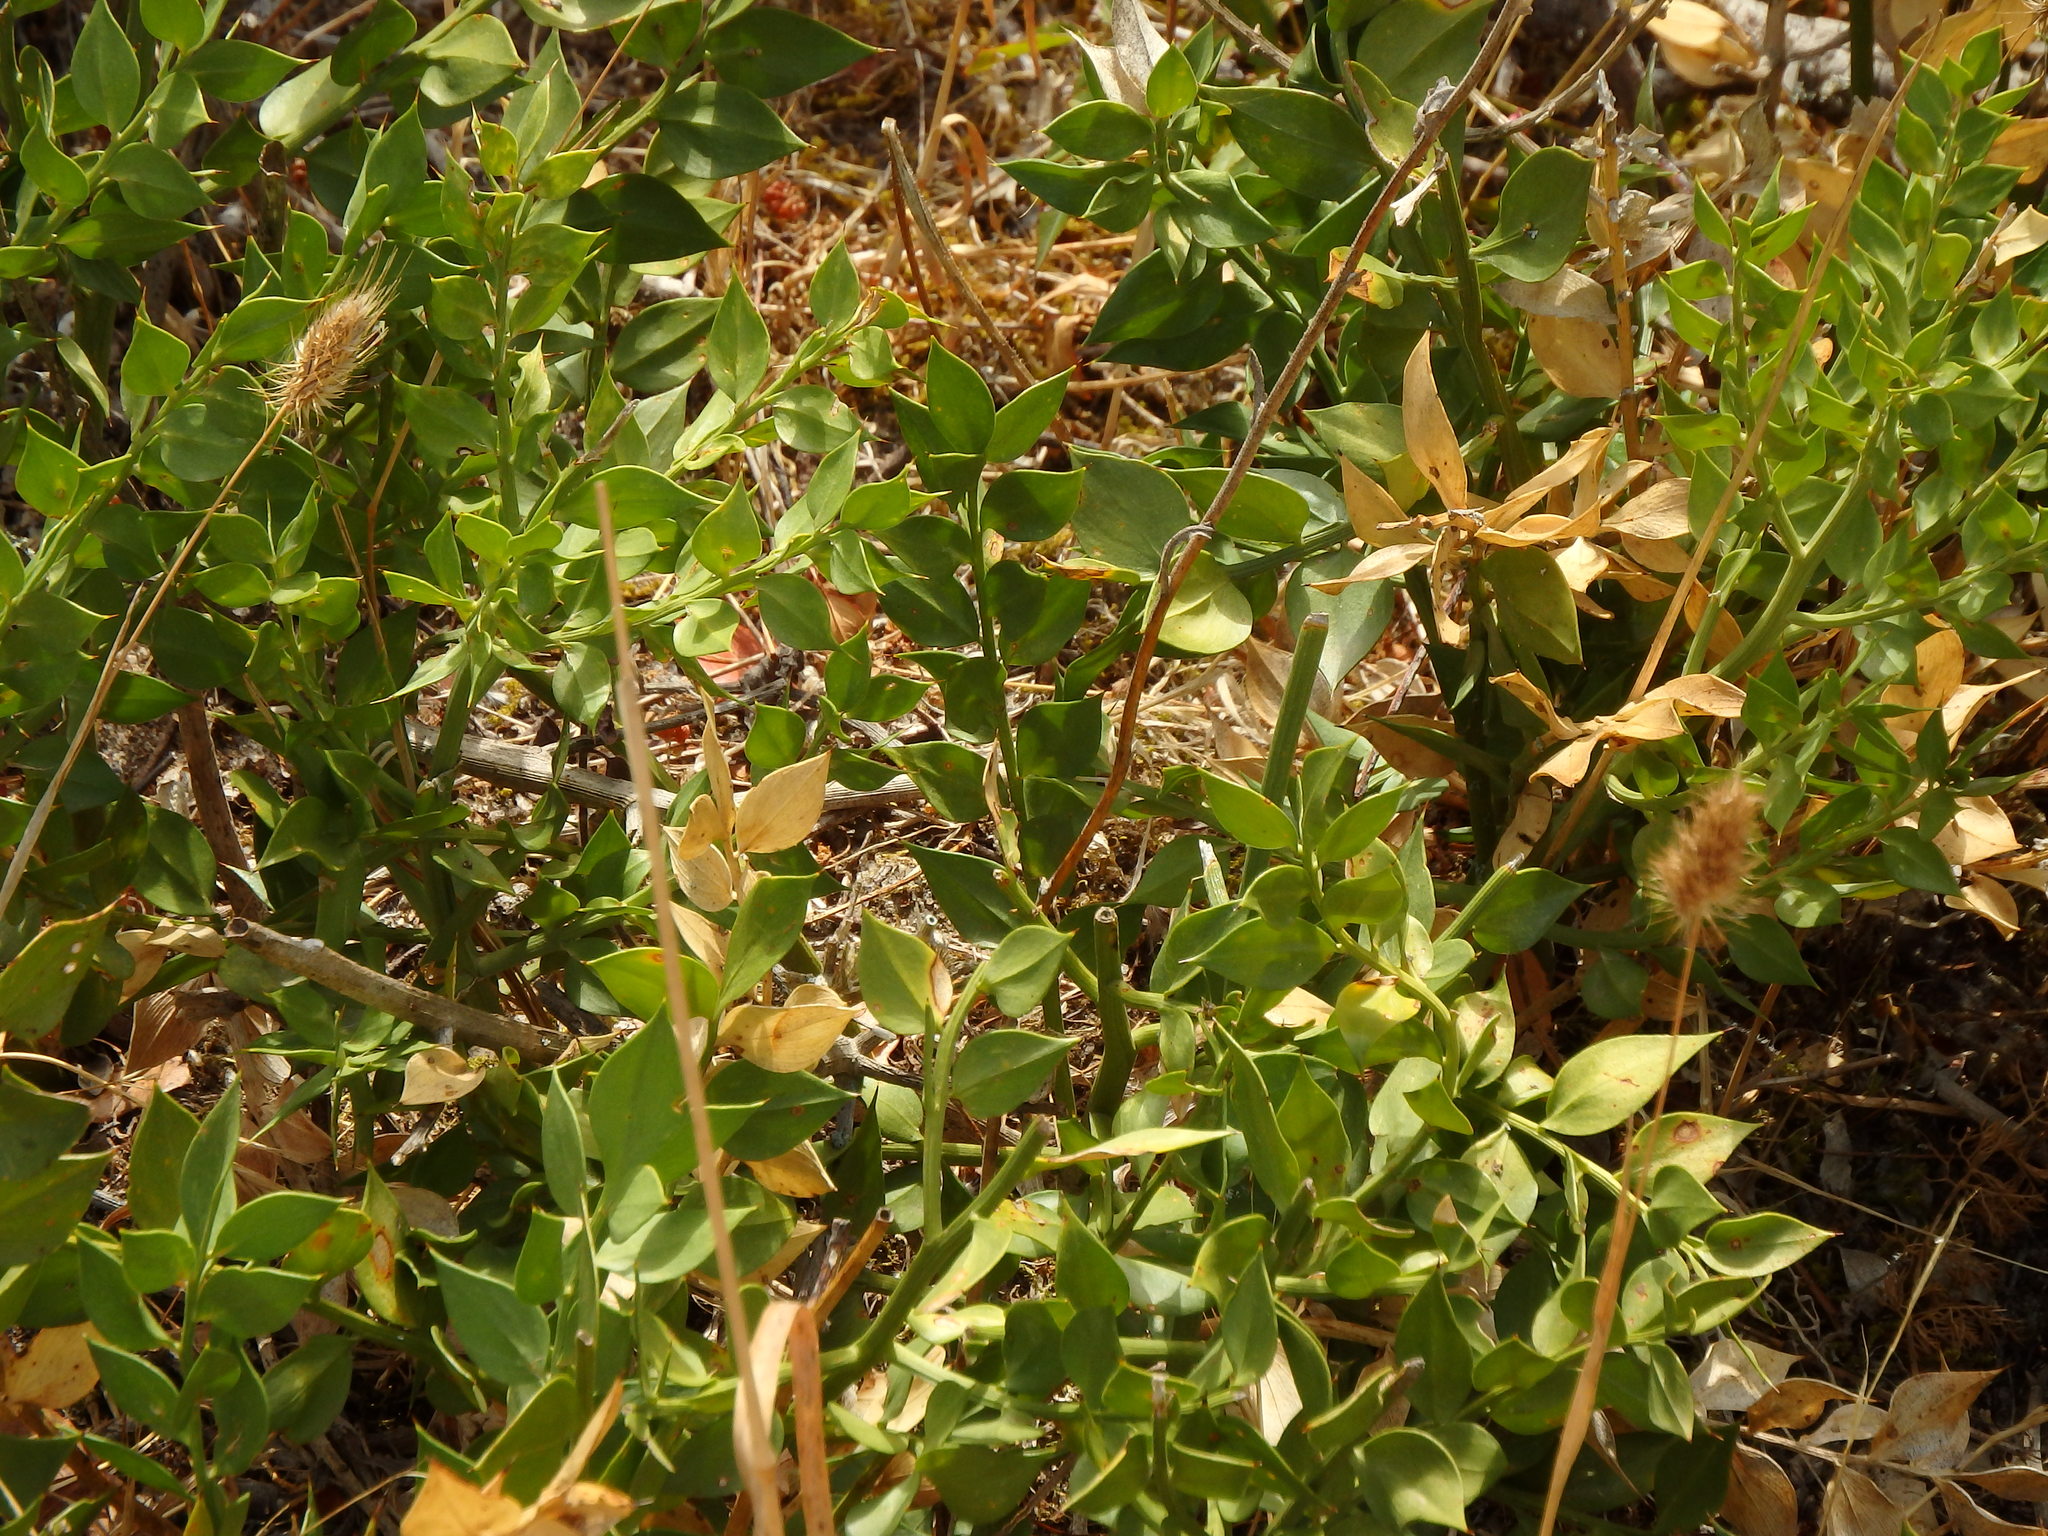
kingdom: Plantae
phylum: Tracheophyta
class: Liliopsida
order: Asparagales
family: Asparagaceae
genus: Ruscus
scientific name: Ruscus aculeatus
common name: Butcher's-broom
